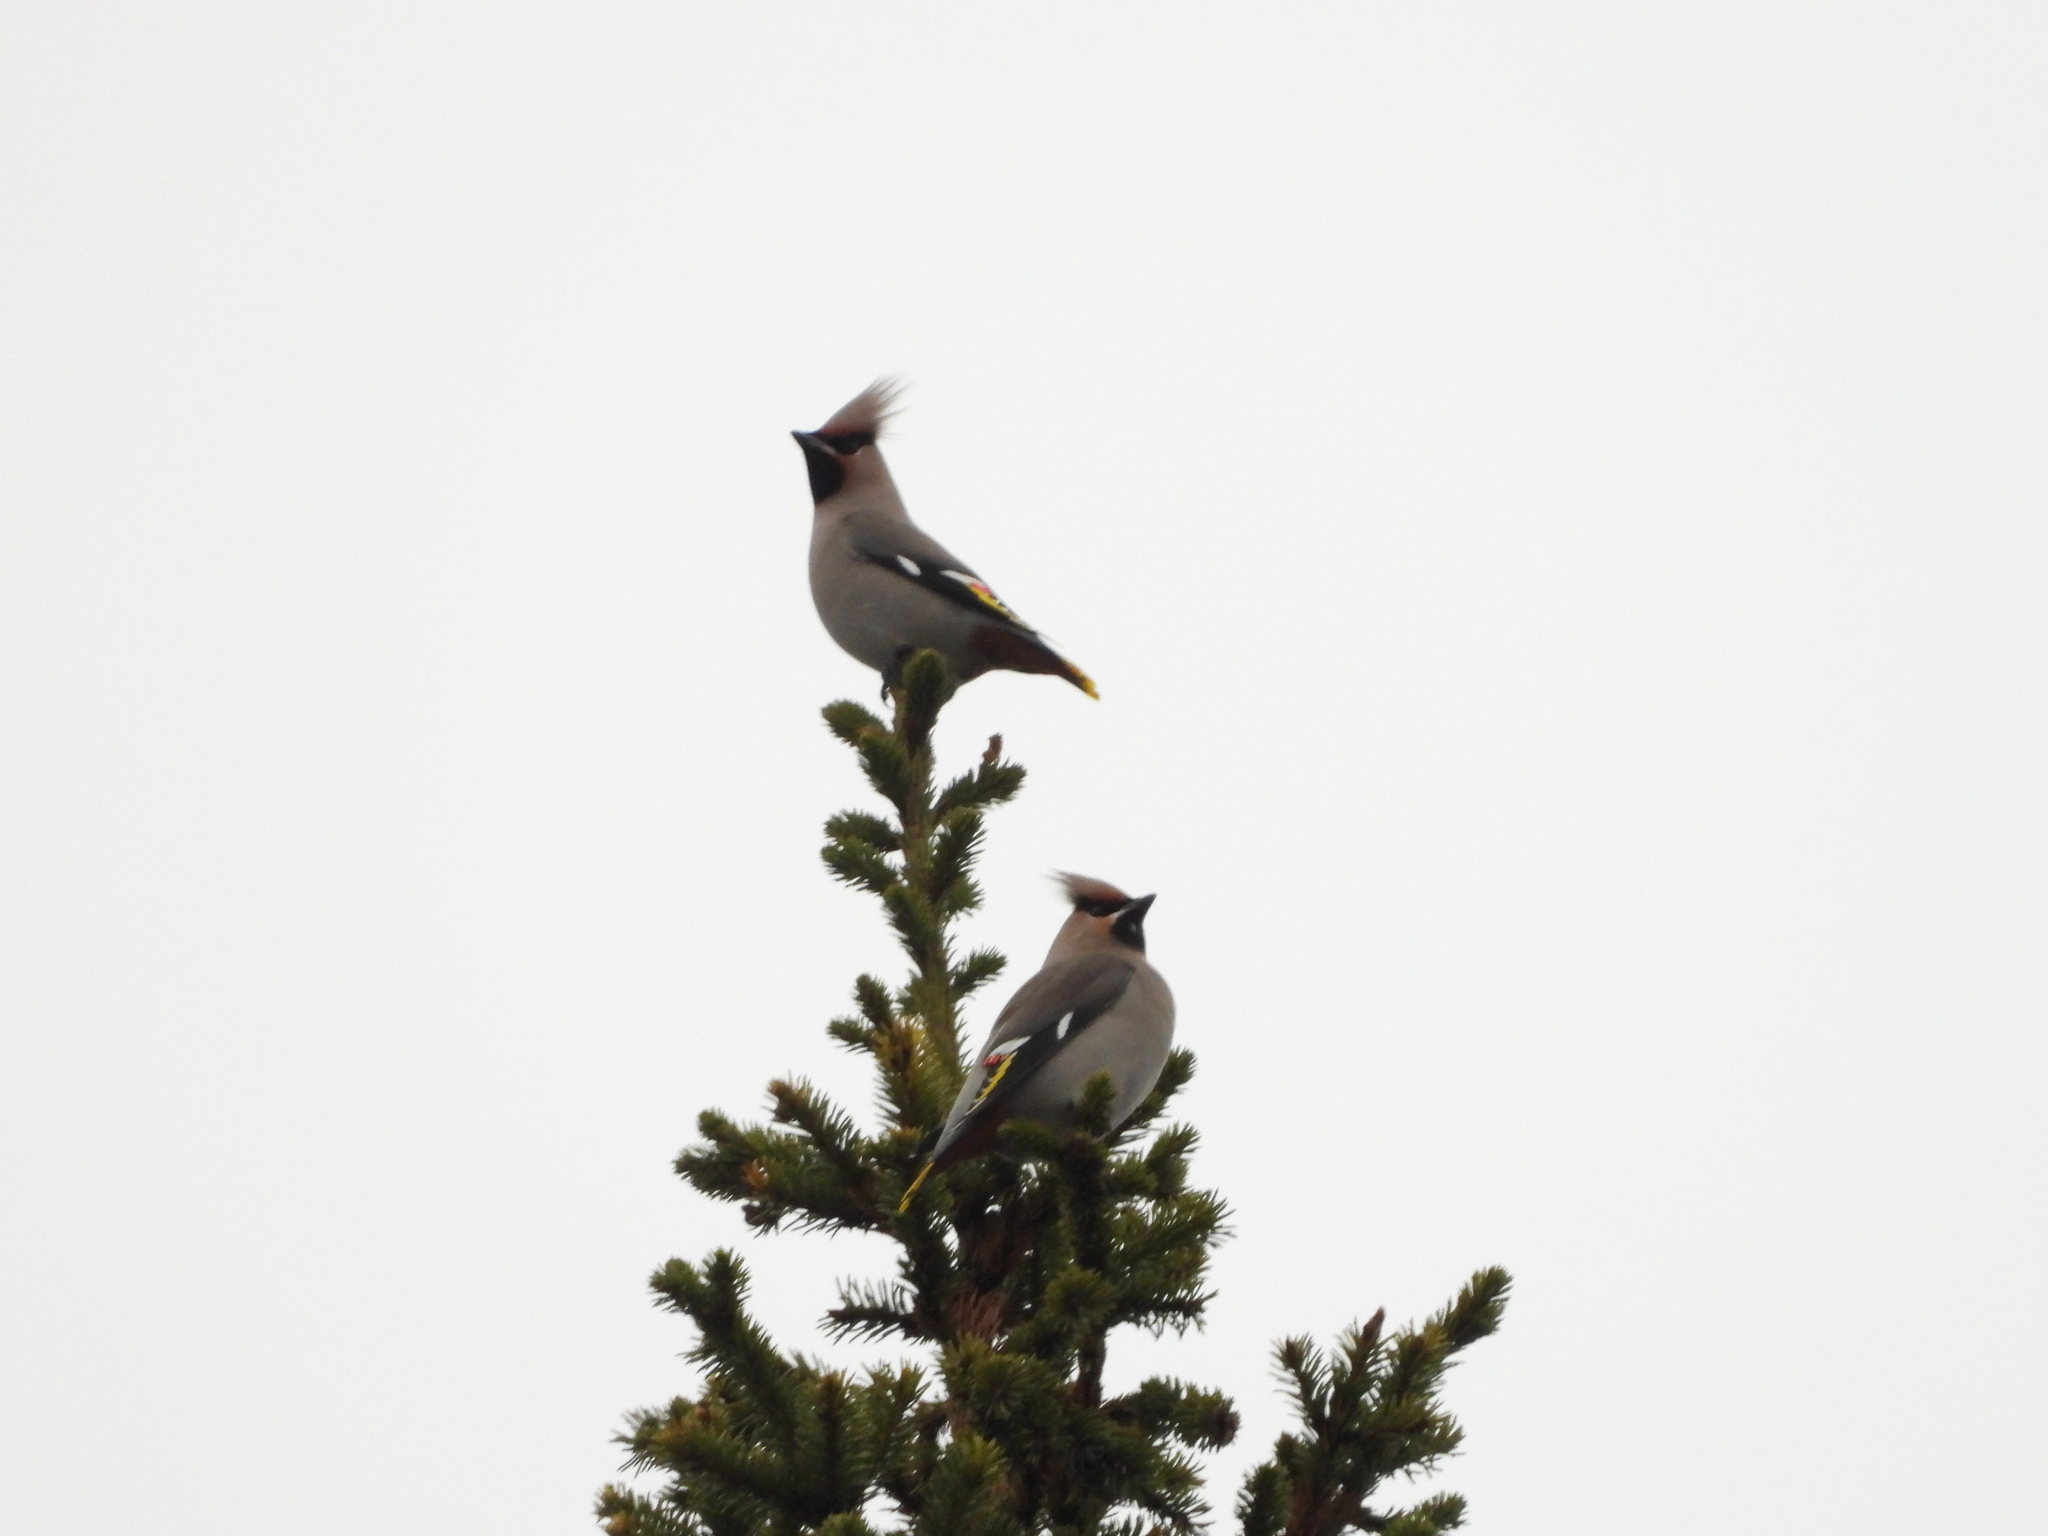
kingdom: Animalia
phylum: Chordata
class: Aves
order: Passeriformes
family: Bombycillidae
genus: Bombycilla
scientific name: Bombycilla garrulus
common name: Bohemian waxwing
